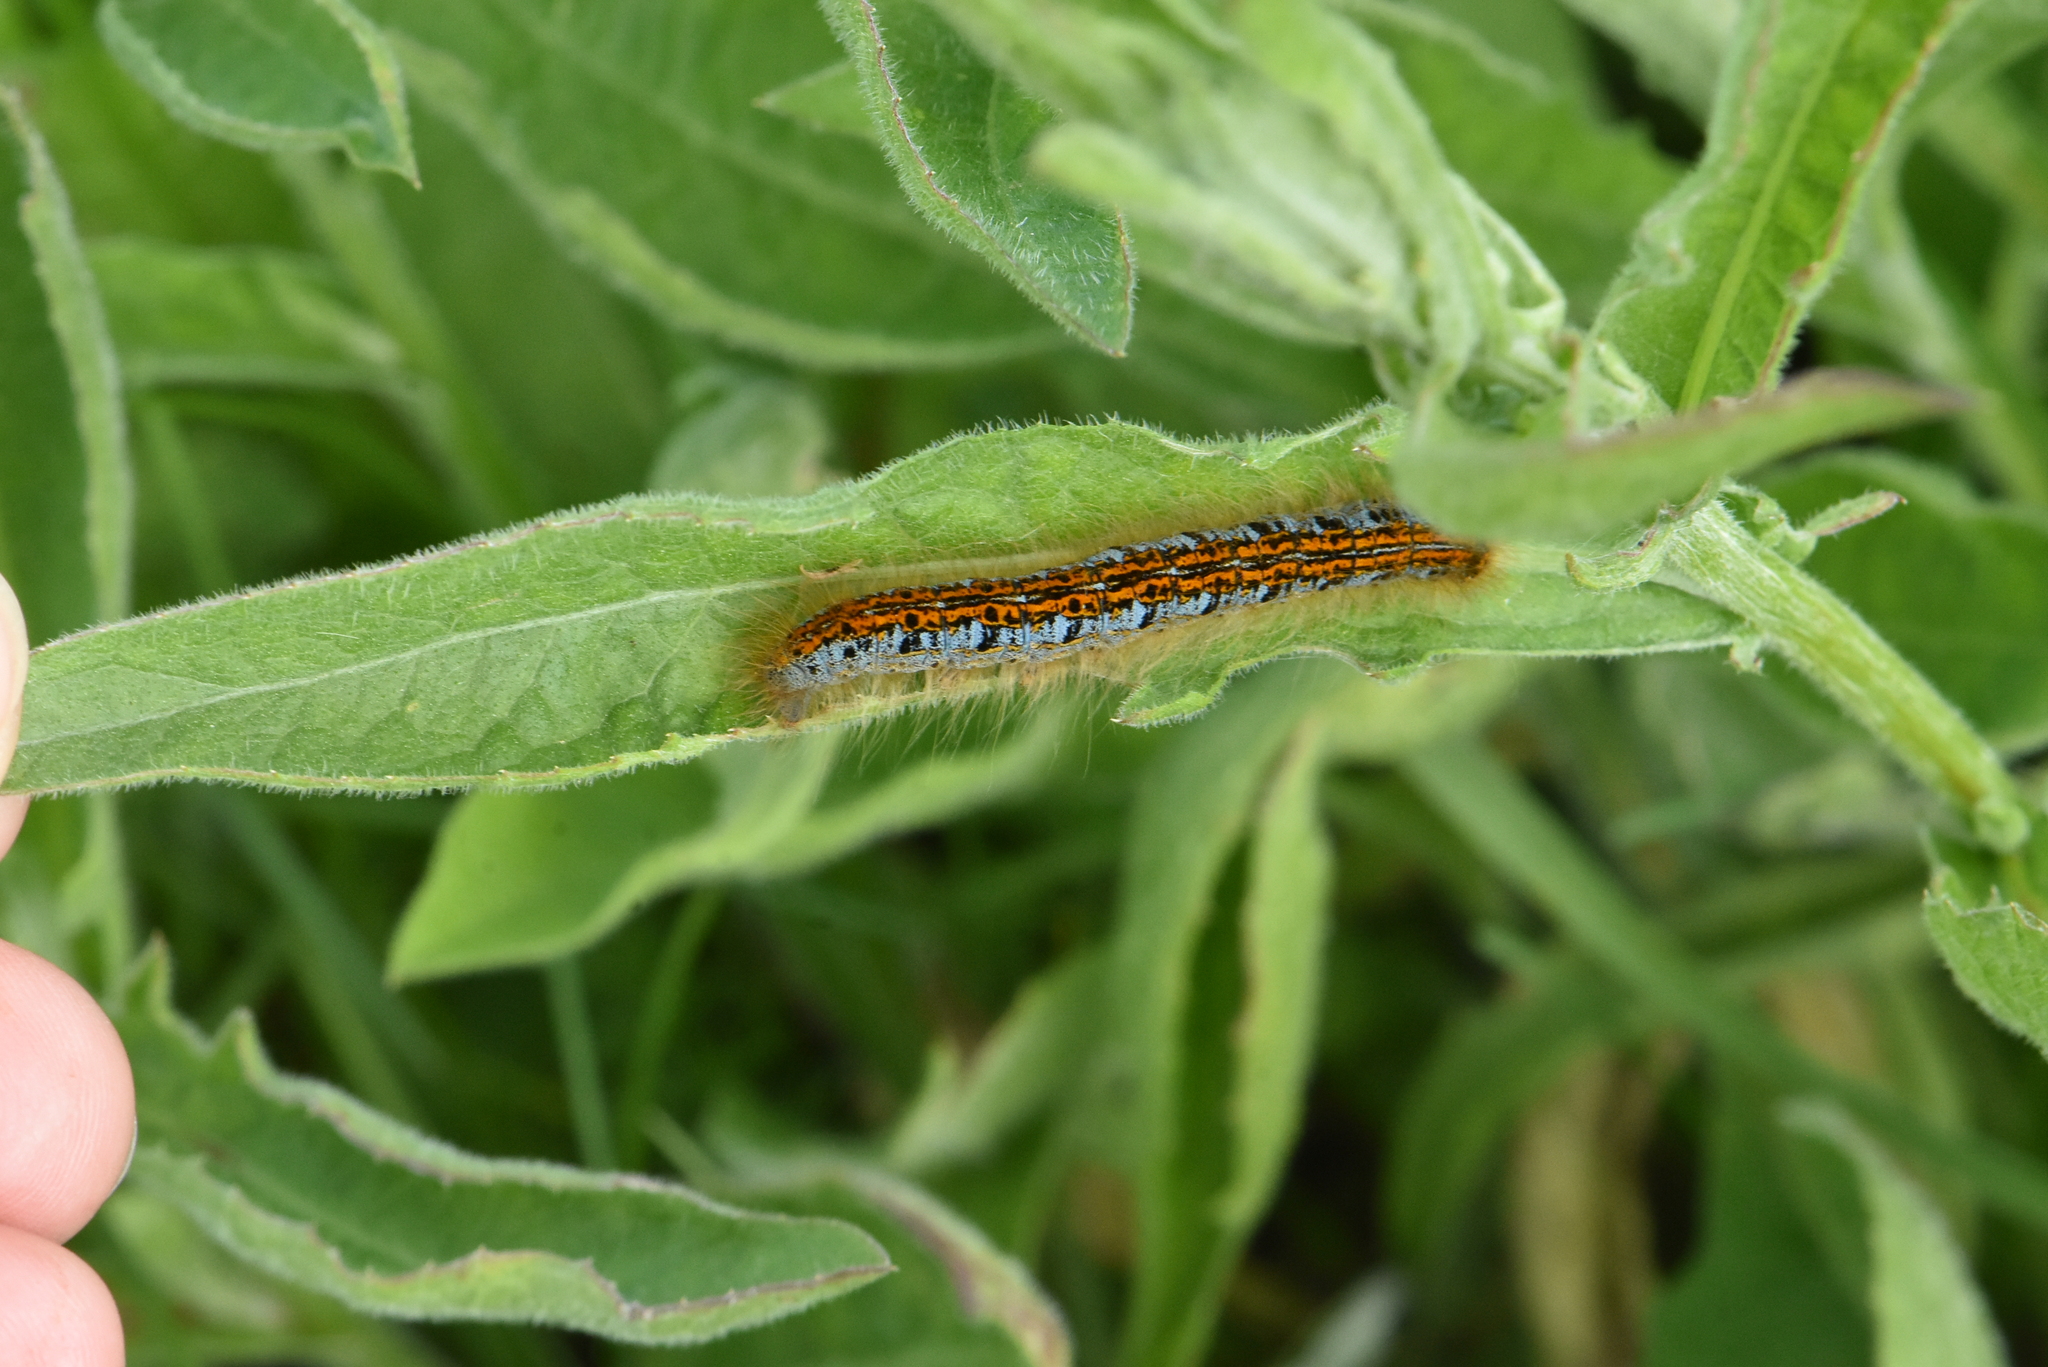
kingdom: Animalia
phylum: Arthropoda
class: Insecta
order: Lepidoptera
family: Lasiocampidae
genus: Malacosoma
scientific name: Malacosoma castrense
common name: Ground lackey
